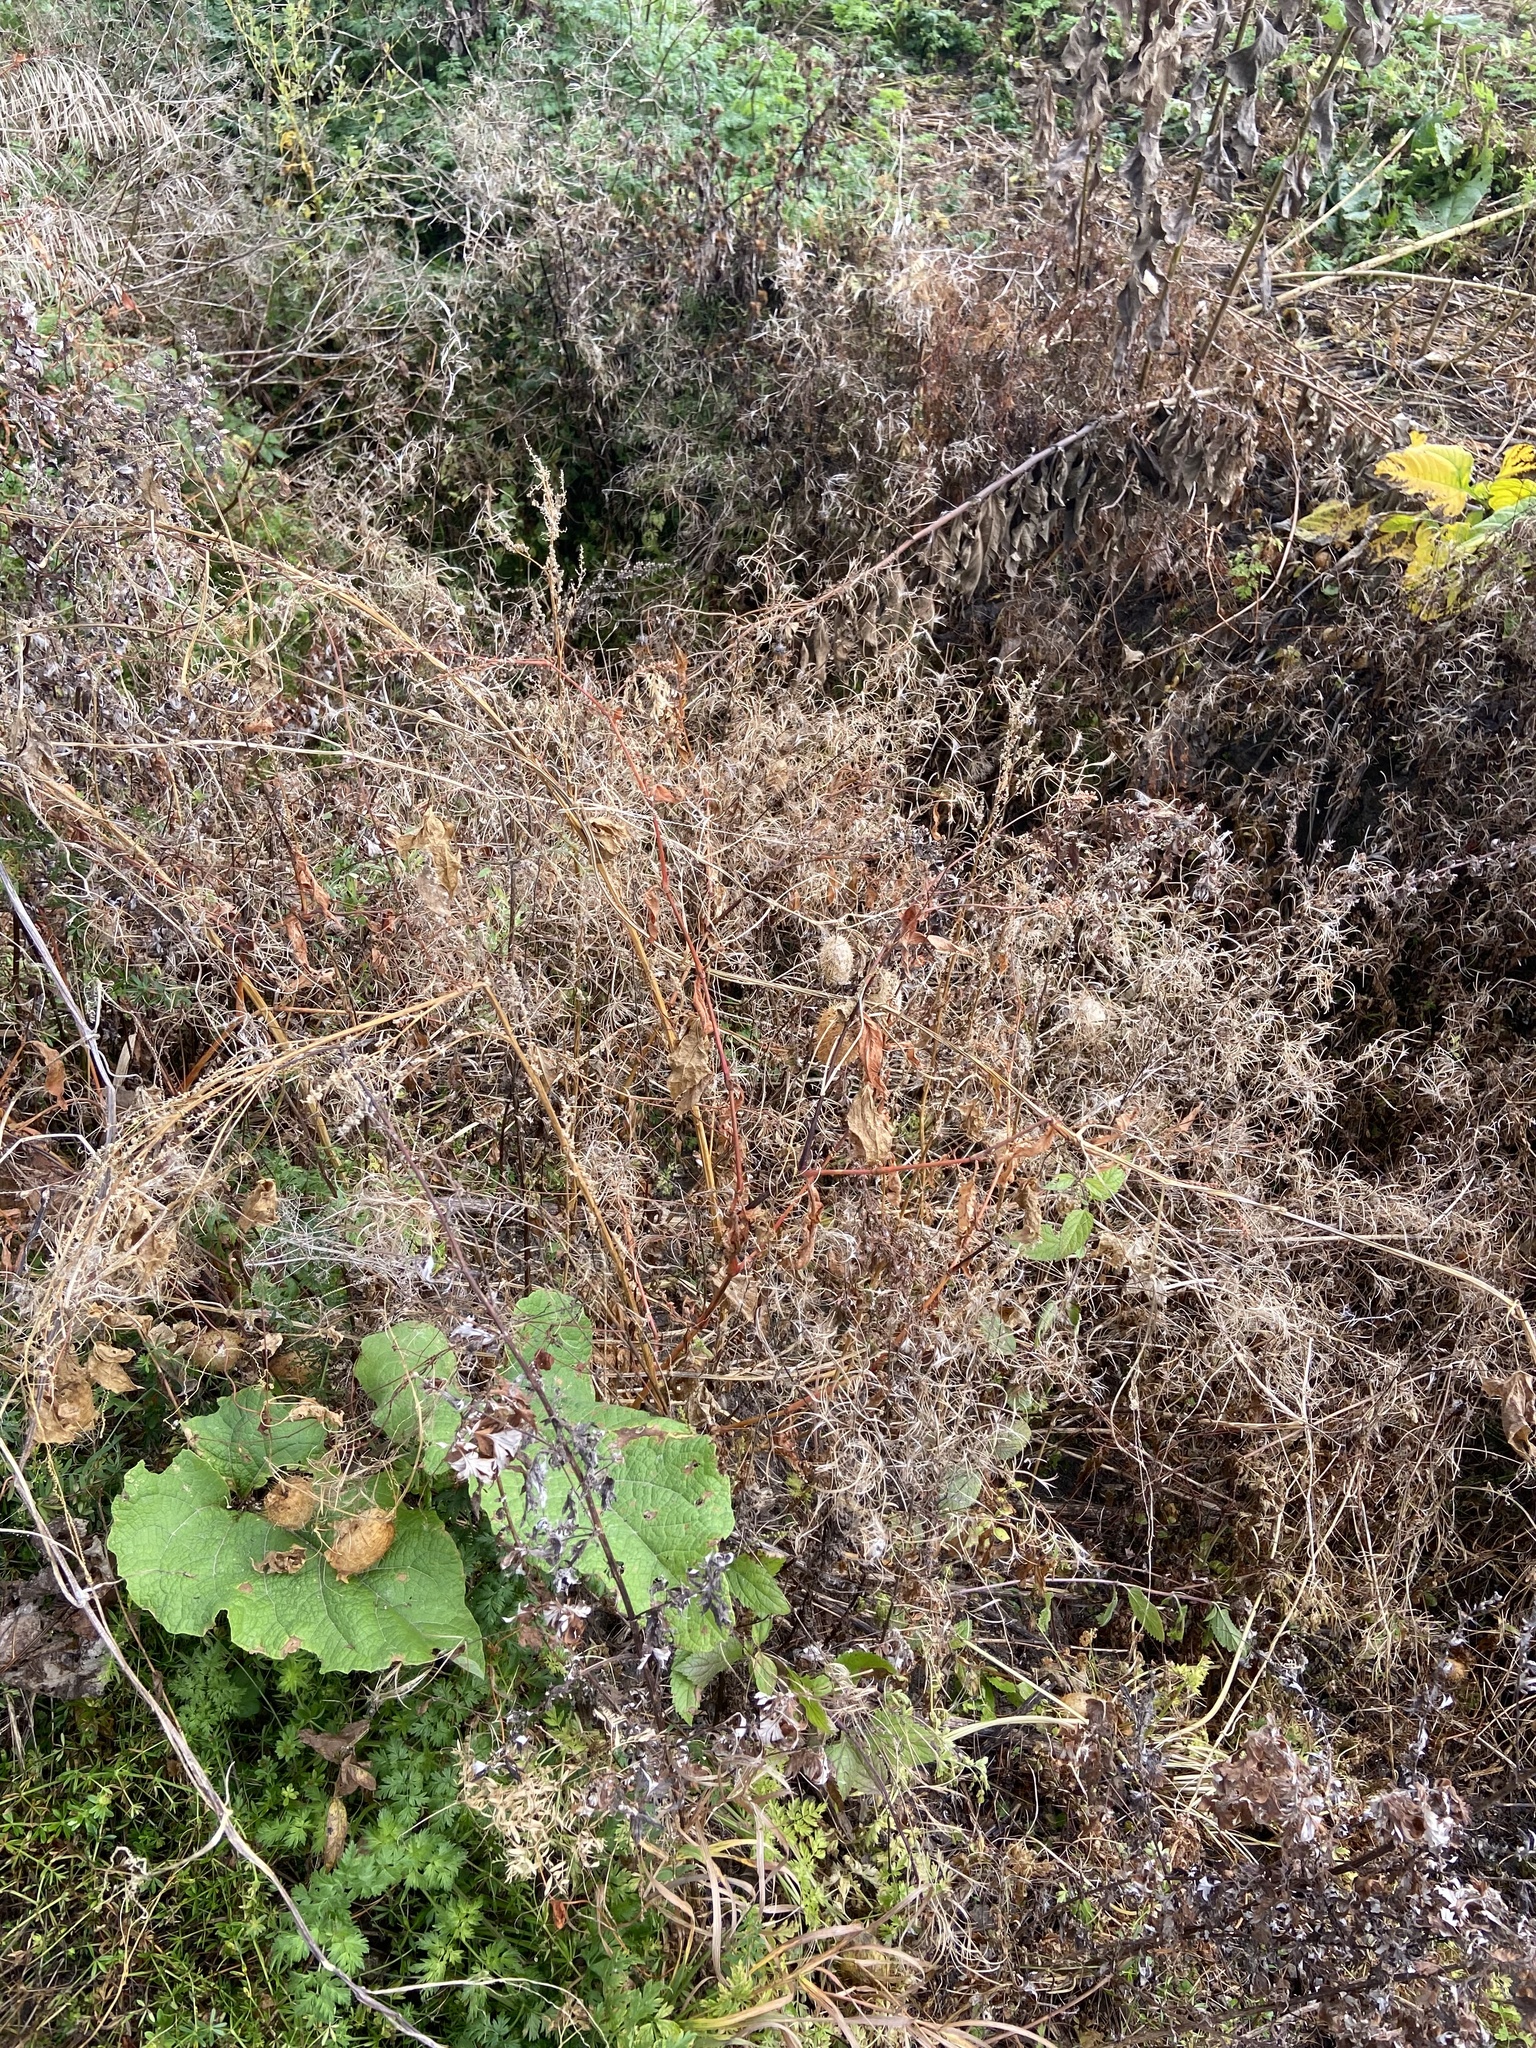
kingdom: Plantae
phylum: Tracheophyta
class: Magnoliopsida
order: Cucurbitales
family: Cucurbitaceae
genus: Echinocystis
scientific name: Echinocystis lobata
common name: Wild cucumber
